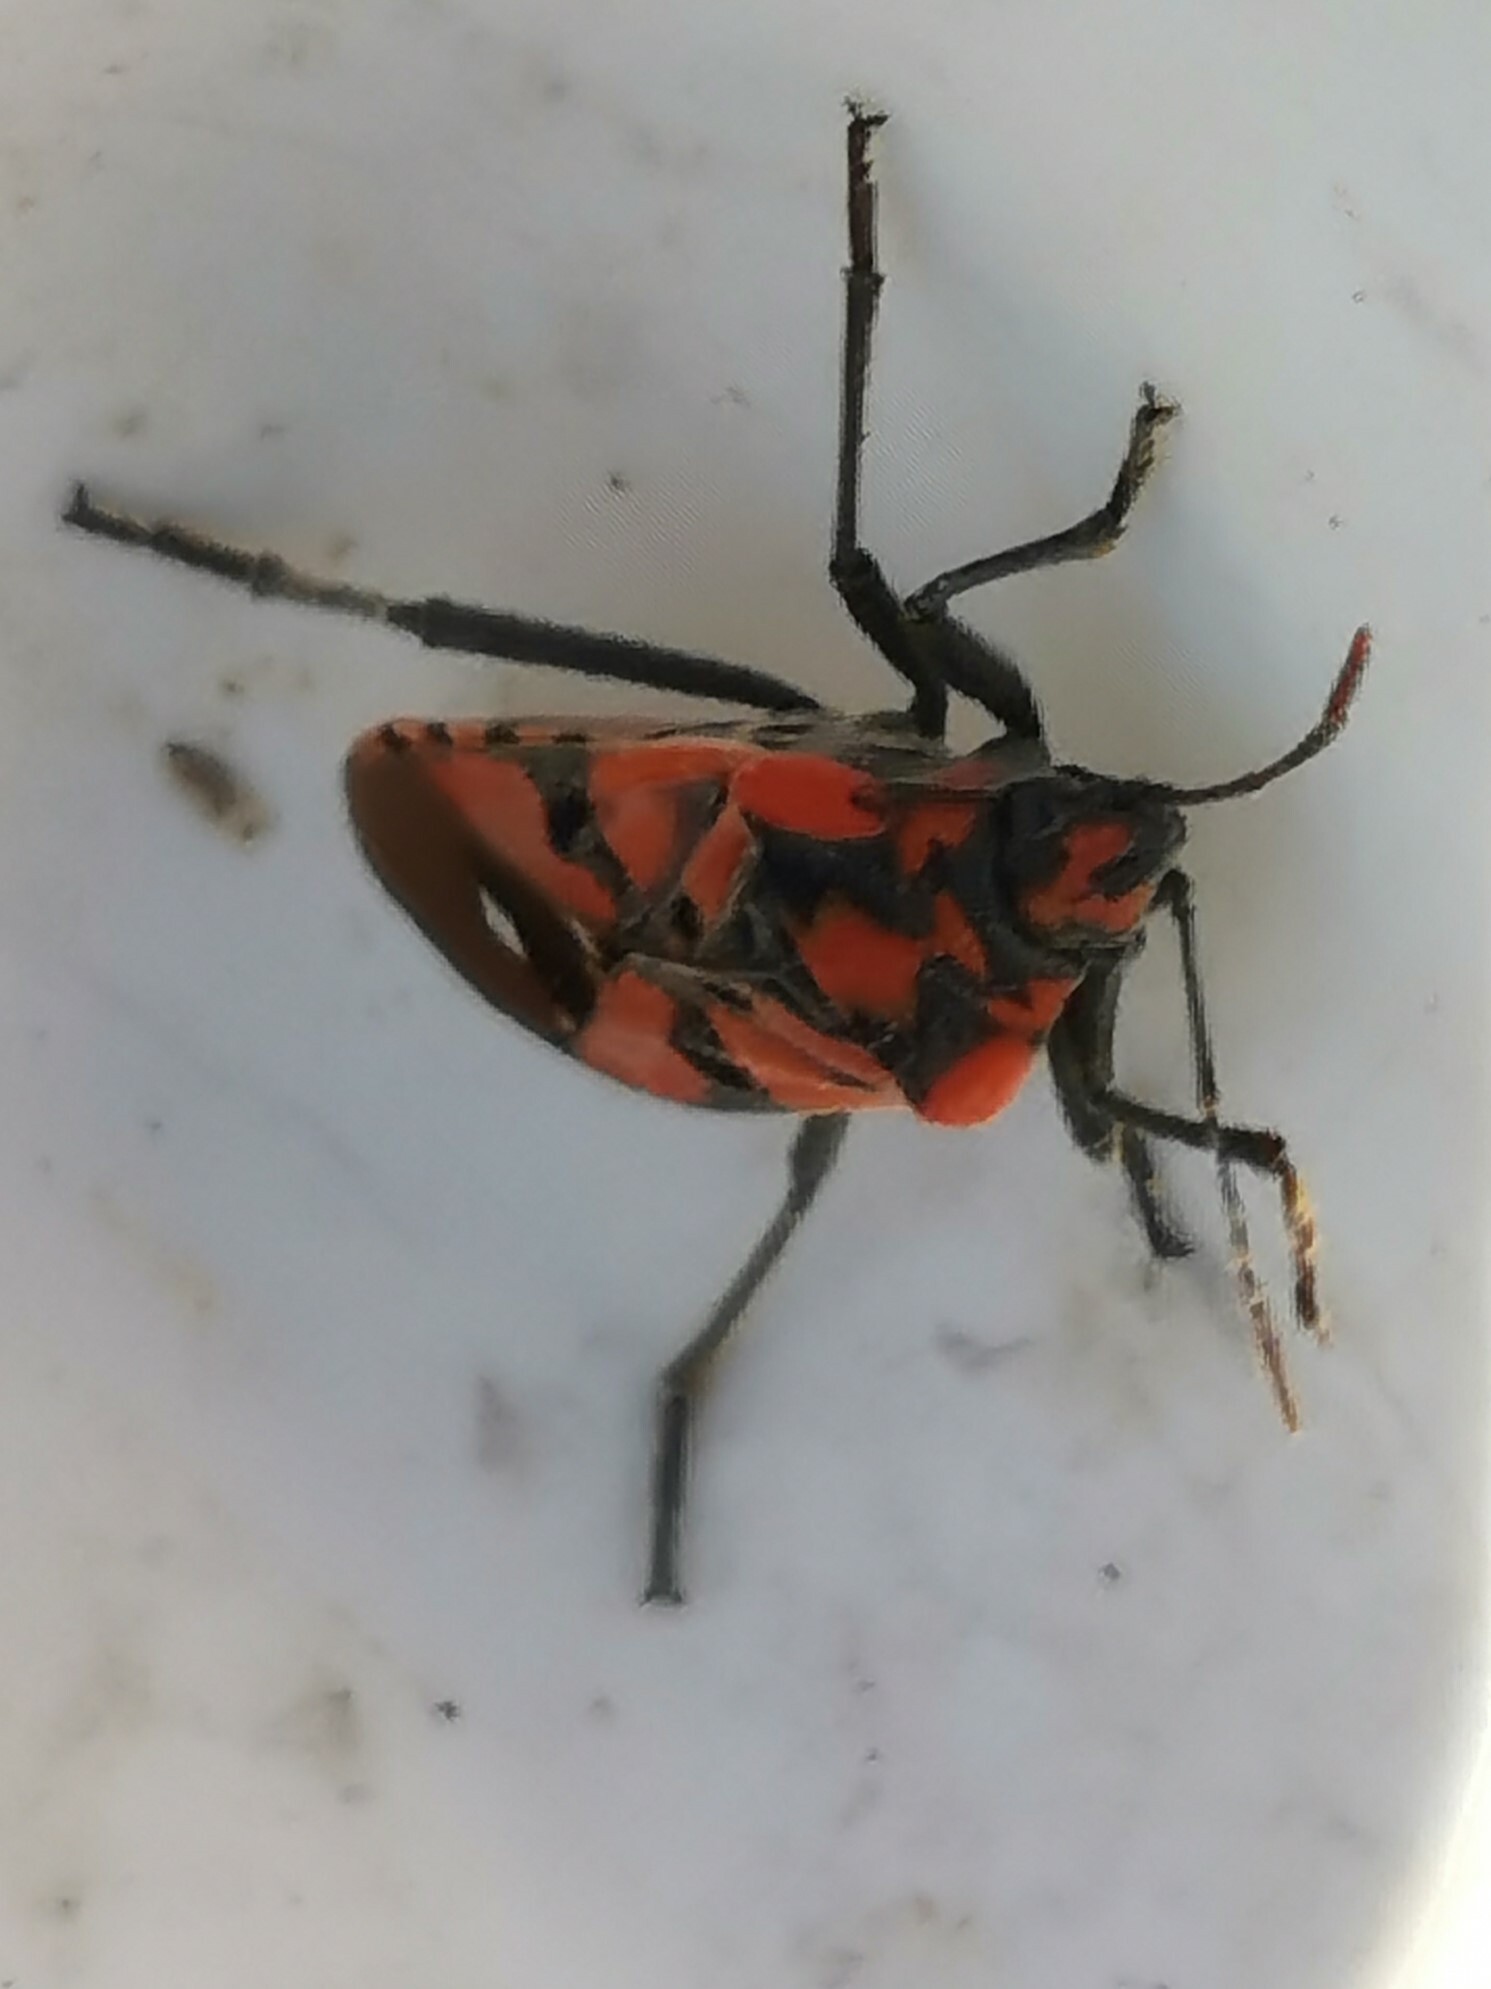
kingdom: Animalia
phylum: Arthropoda
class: Insecta
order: Hemiptera
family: Lygaeidae
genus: Spilostethus
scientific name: Spilostethus pandurus
